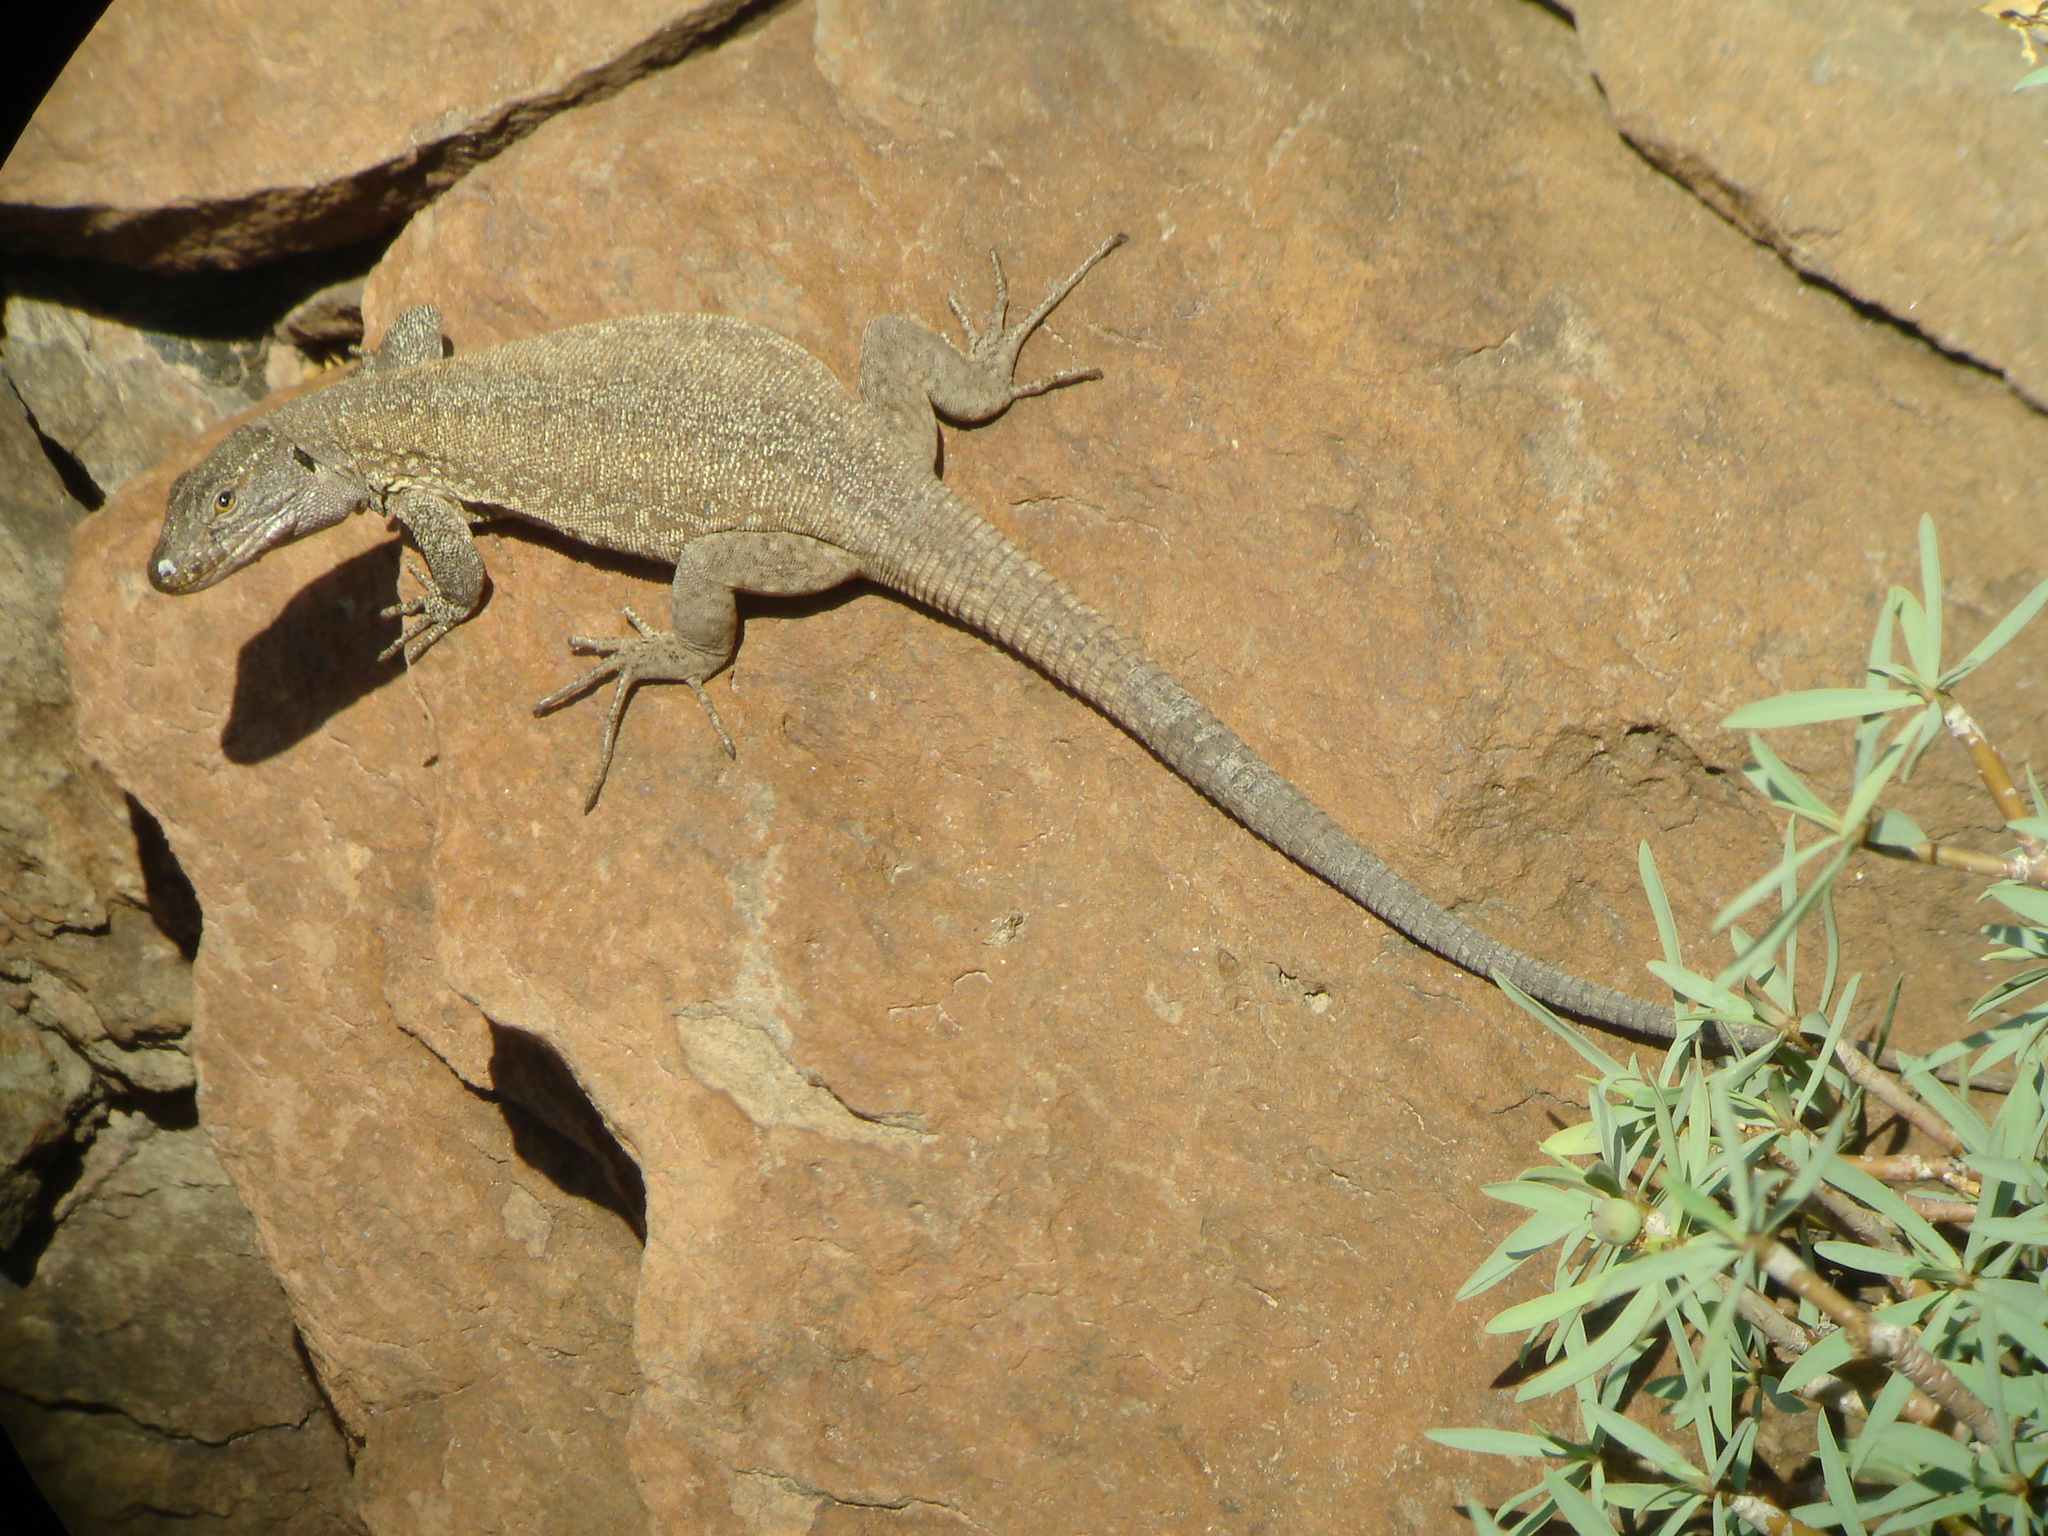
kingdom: Animalia
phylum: Chordata
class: Squamata
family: Lacertidae
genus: Gallotia
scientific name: Gallotia intermedia
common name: Tenerife speckled lizard
